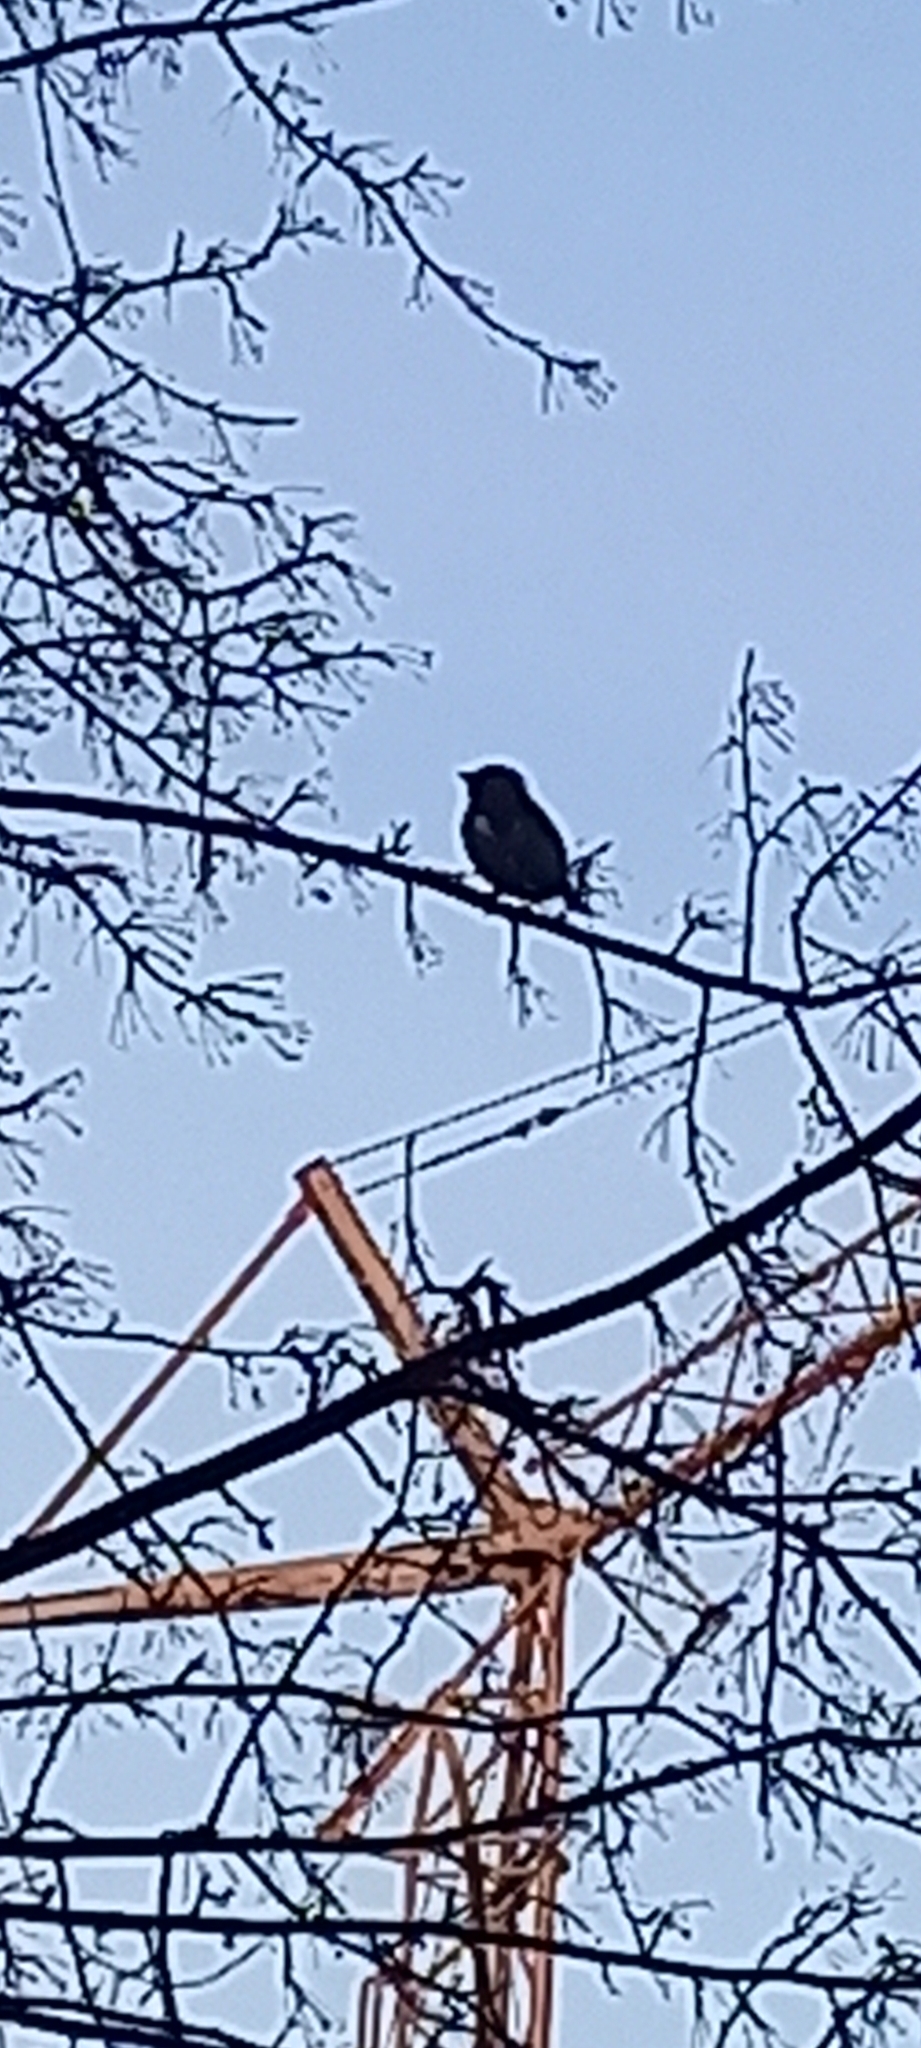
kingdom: Animalia
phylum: Chordata
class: Aves
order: Passeriformes
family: Bombycillidae
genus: Bombycilla
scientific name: Bombycilla garrulus
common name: Bohemian waxwing
